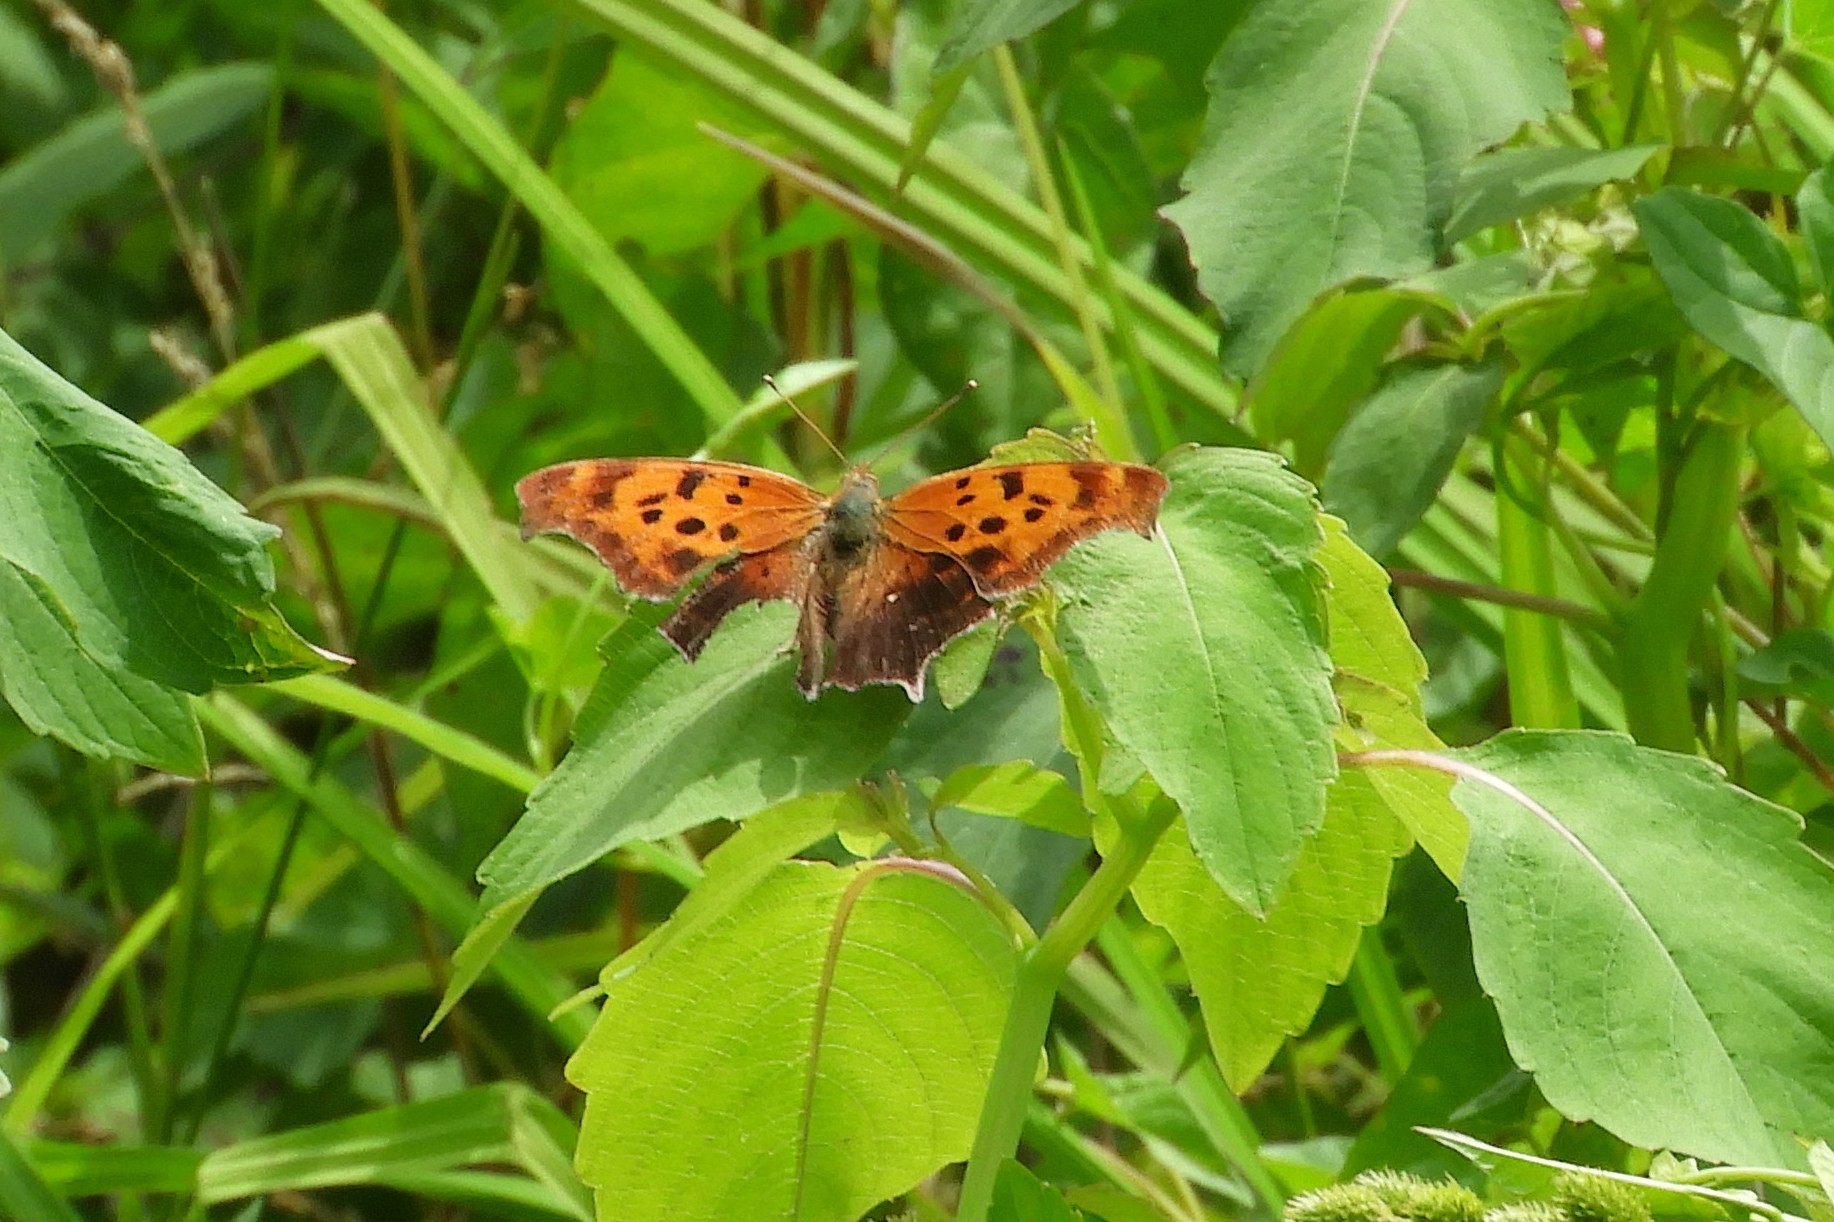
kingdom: Animalia
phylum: Arthropoda
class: Insecta
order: Lepidoptera
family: Nymphalidae
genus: Polygonia
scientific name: Polygonia interrogationis
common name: Question mark
